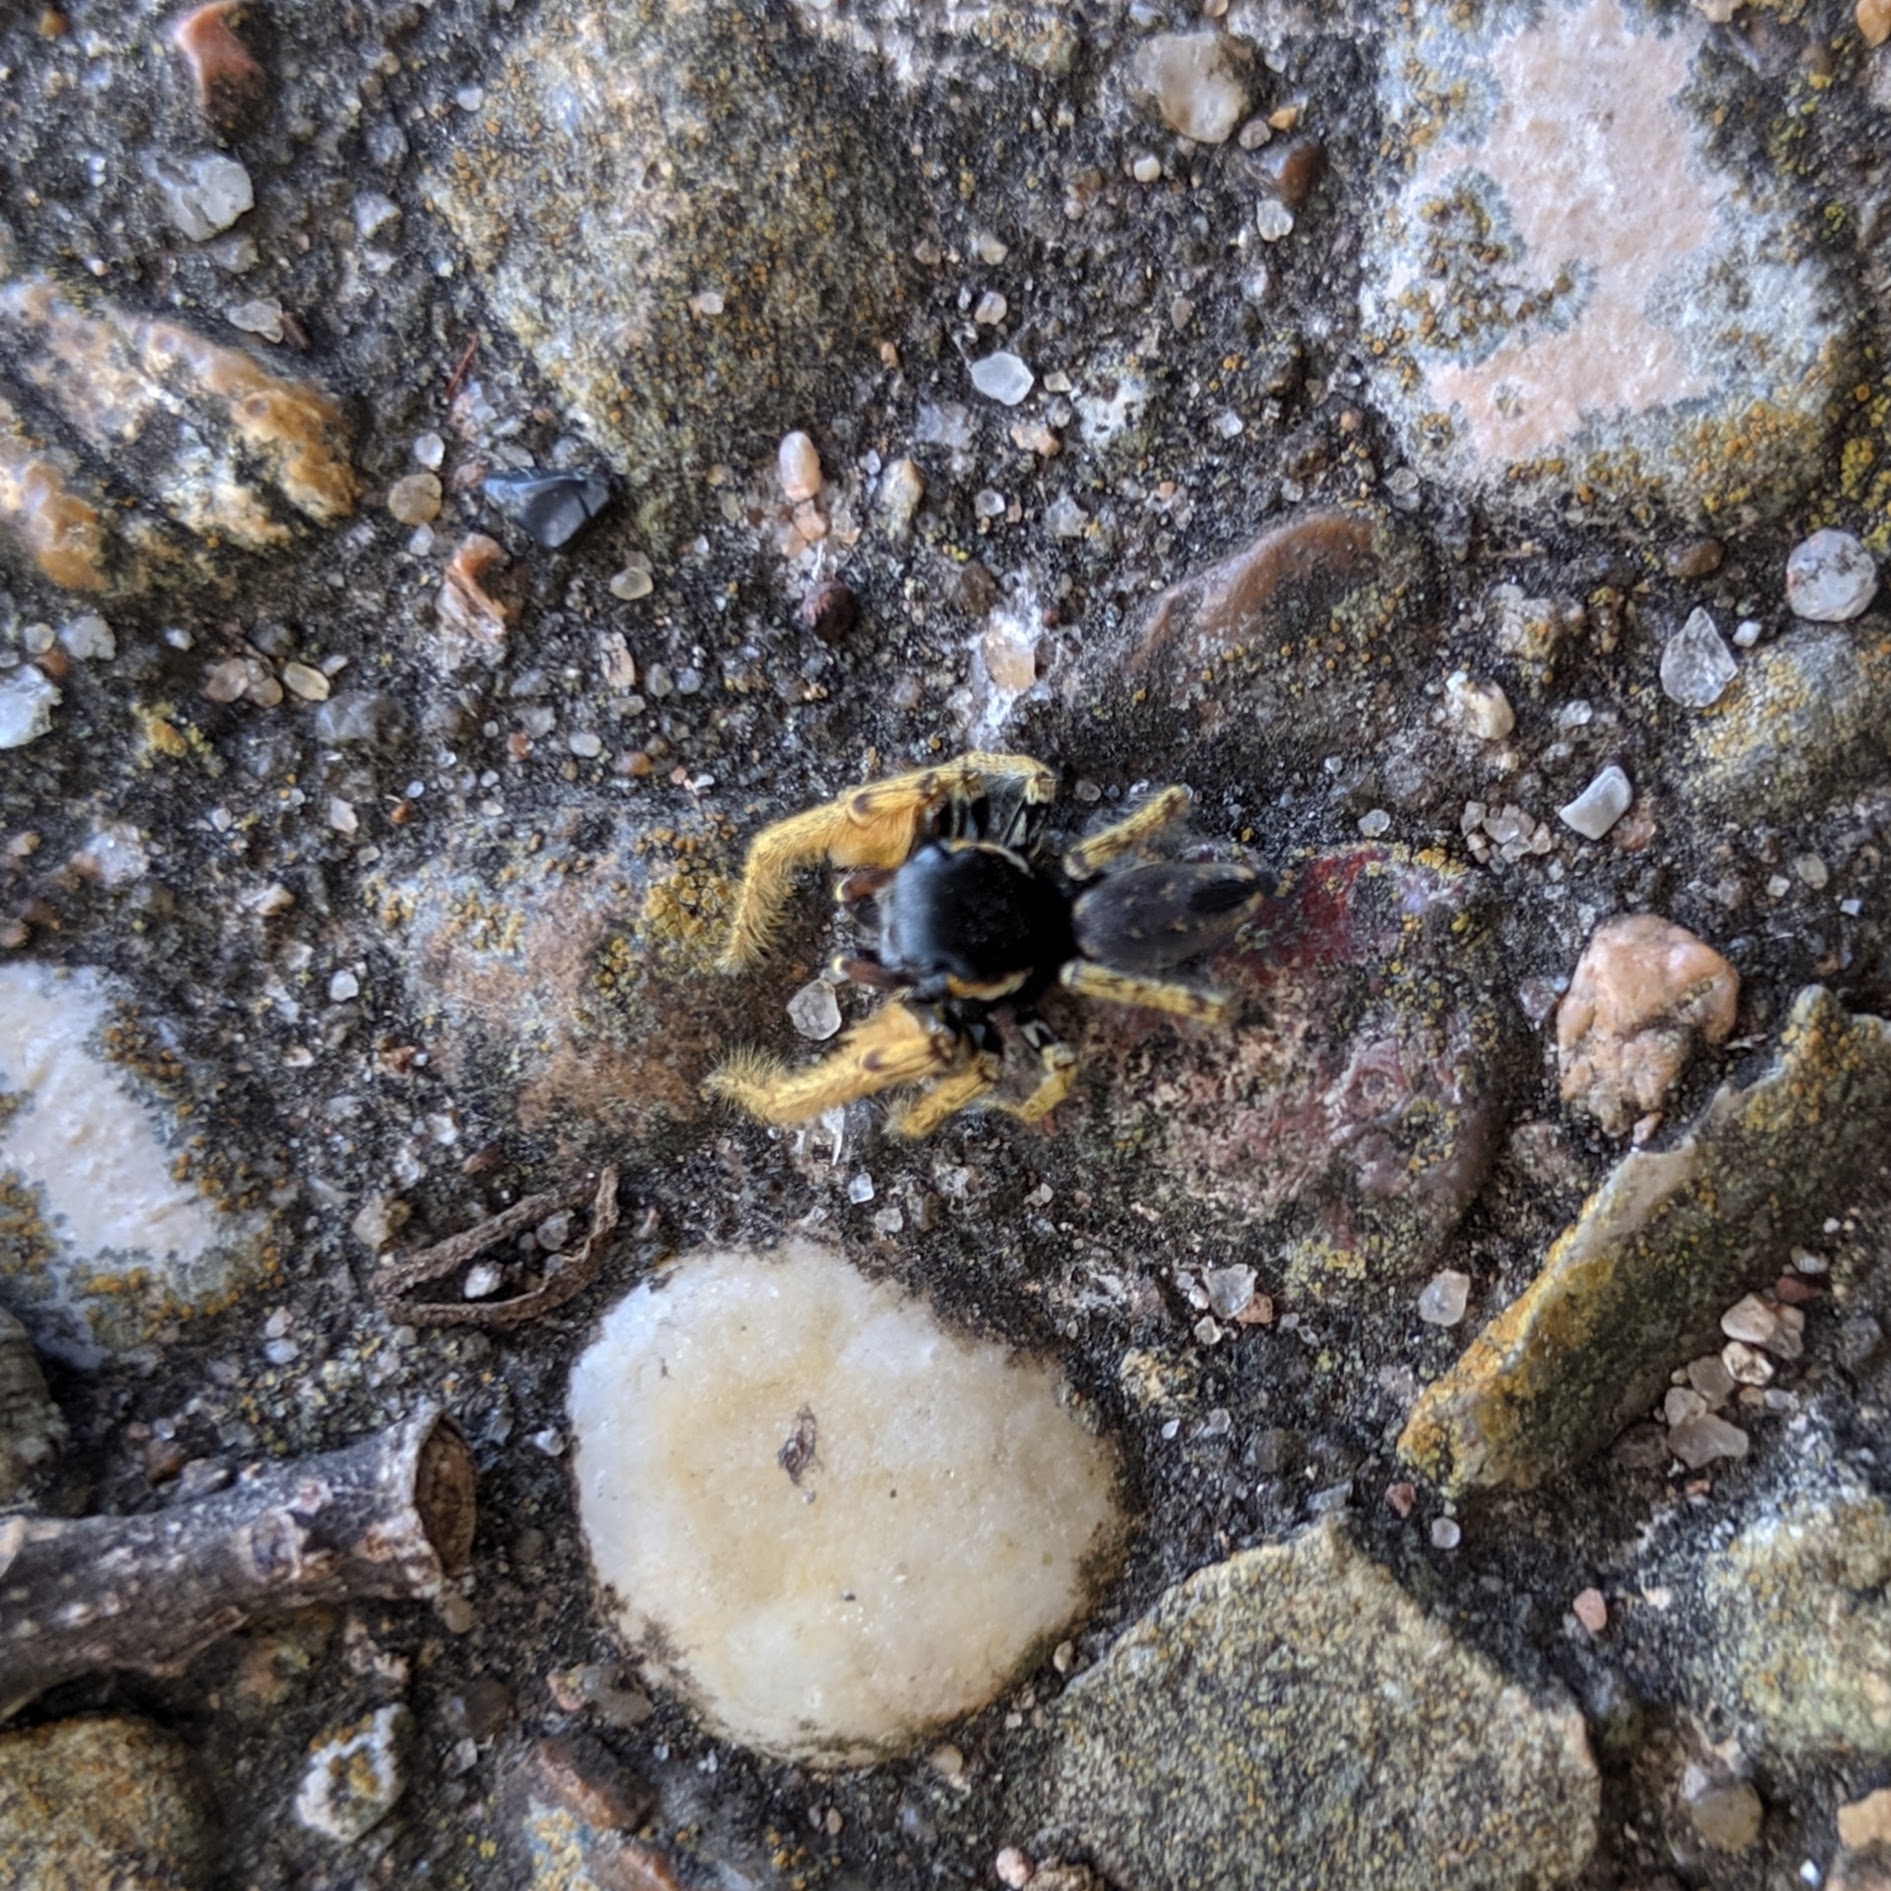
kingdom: Animalia
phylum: Arthropoda
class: Arachnida
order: Araneae
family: Salticidae
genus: Phidippus
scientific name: Phidippus arizonensis
